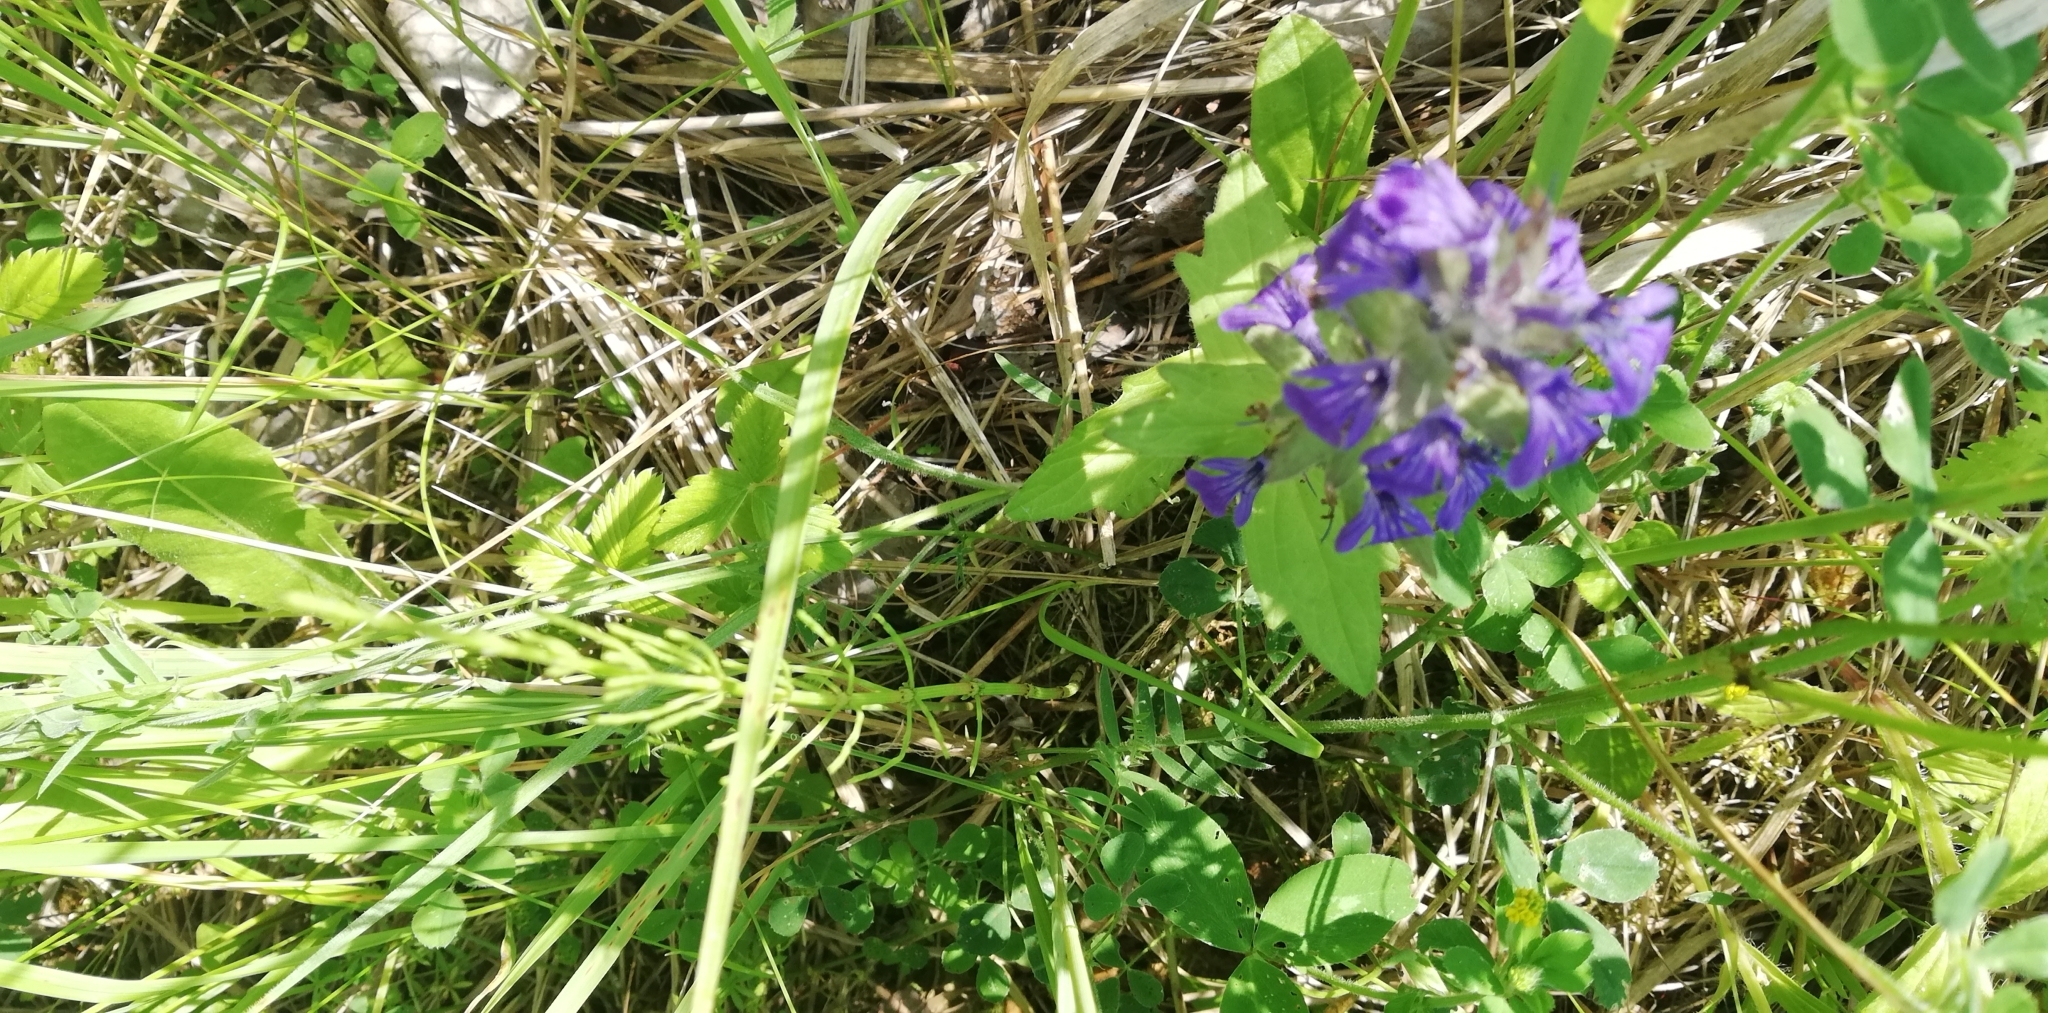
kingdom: Plantae
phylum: Tracheophyta
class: Magnoliopsida
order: Lamiales
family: Lamiaceae
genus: Ajuga
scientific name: Ajuga genevensis
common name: Blue bugle
